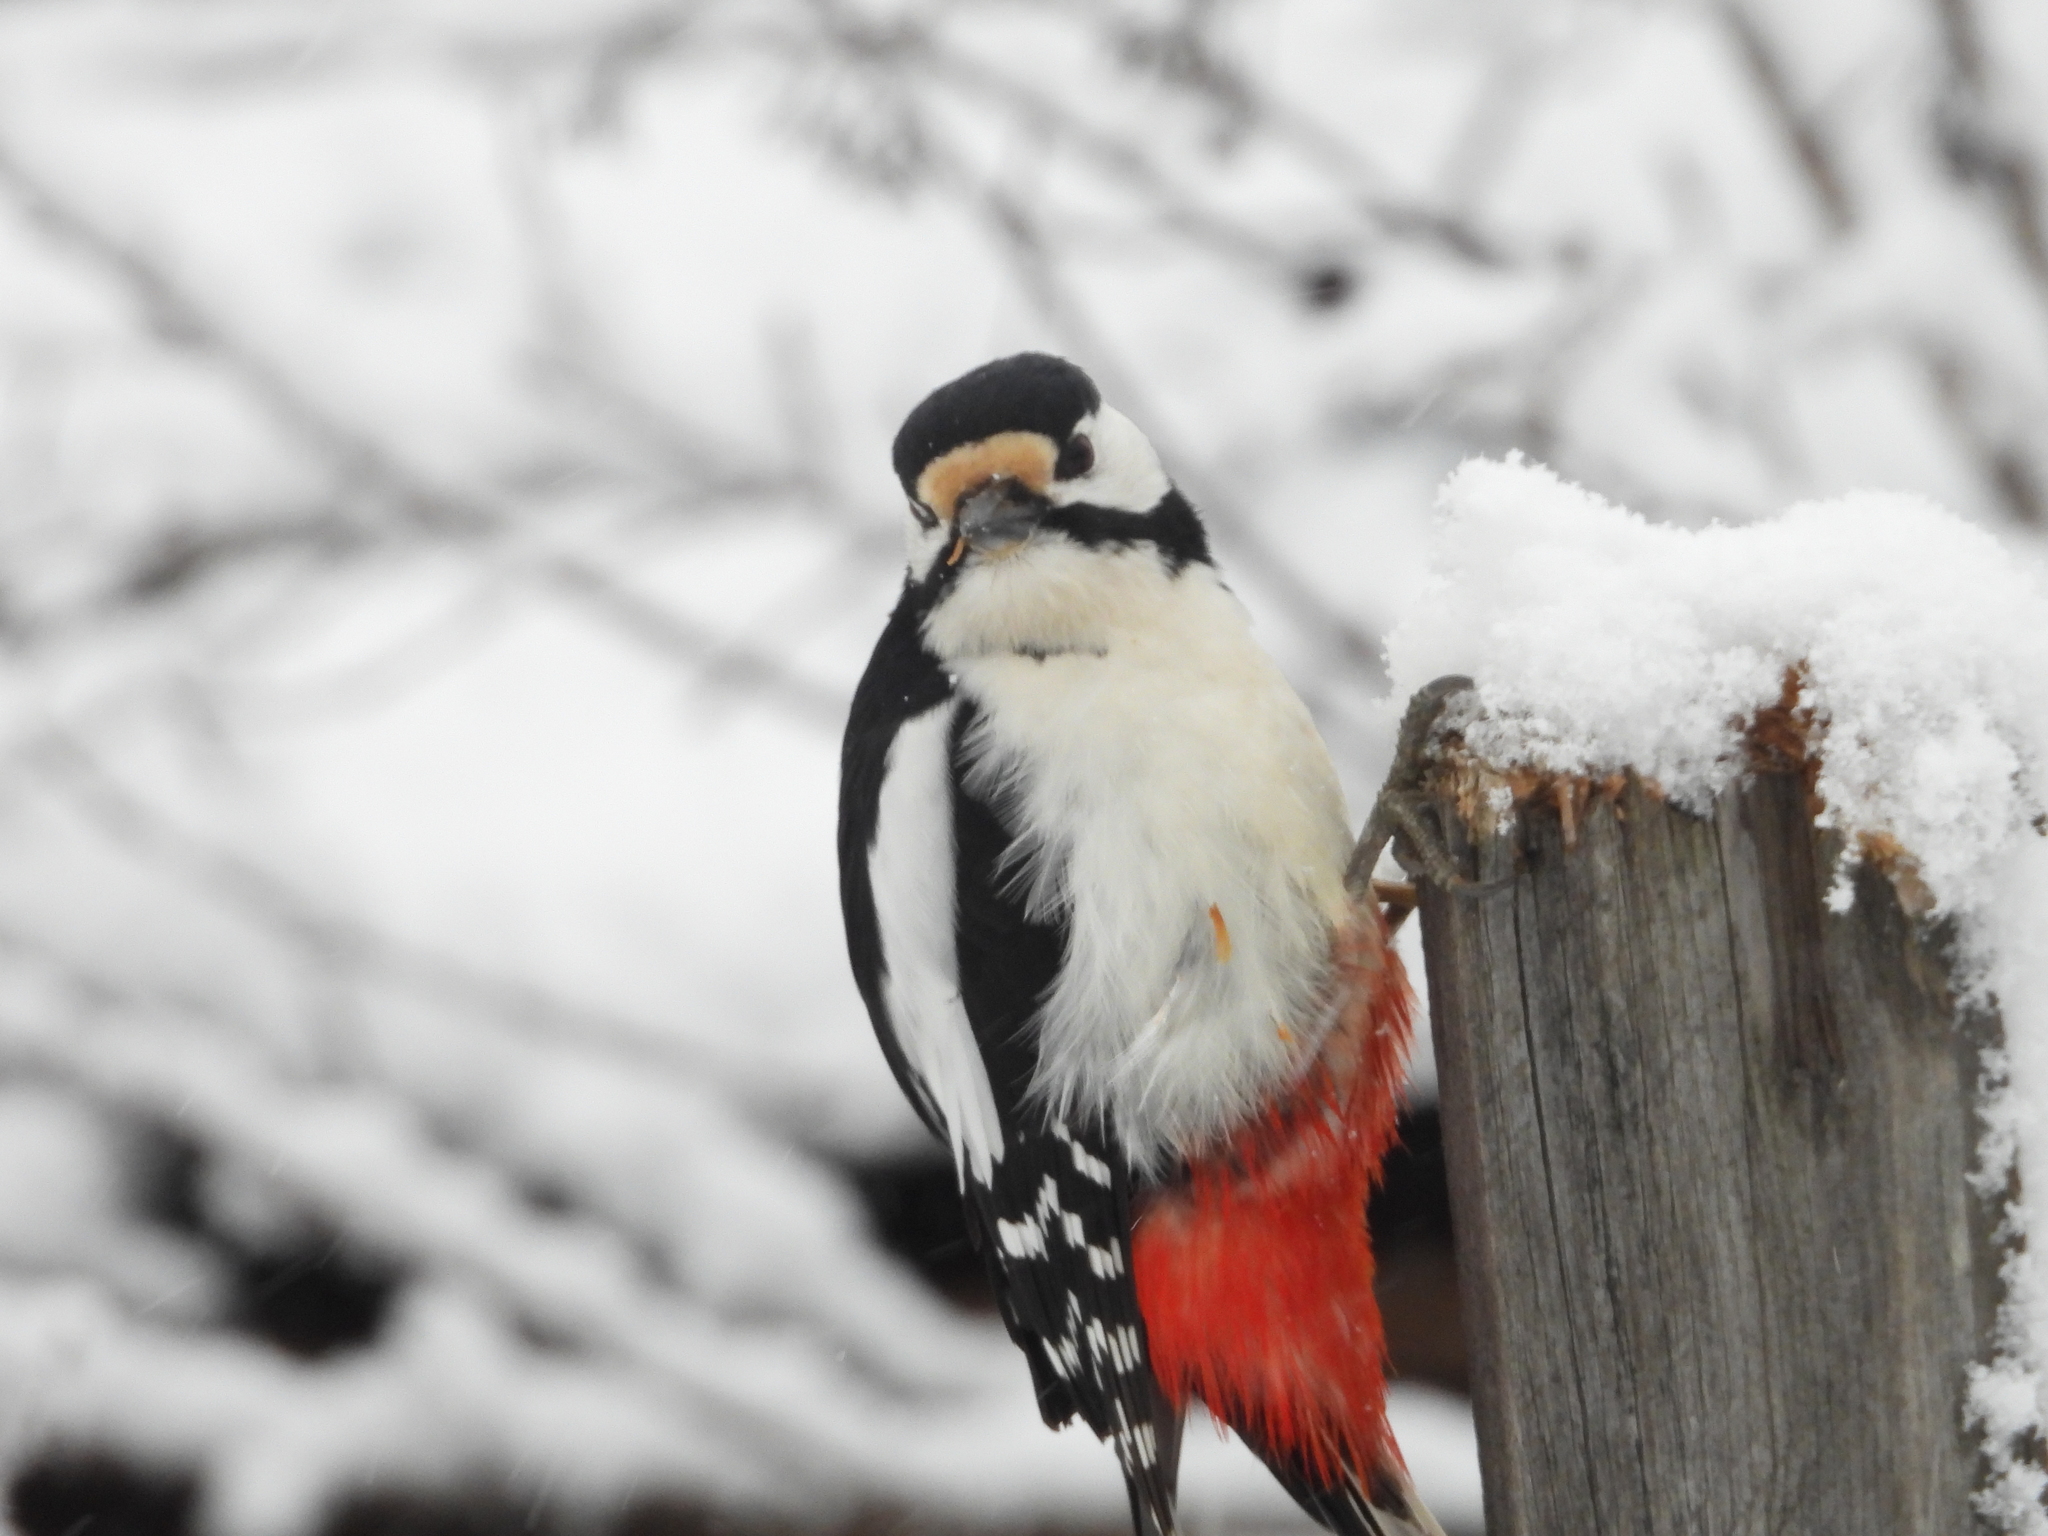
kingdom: Animalia
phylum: Chordata
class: Aves
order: Piciformes
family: Picidae
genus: Dendrocopos
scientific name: Dendrocopos major
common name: Great spotted woodpecker
